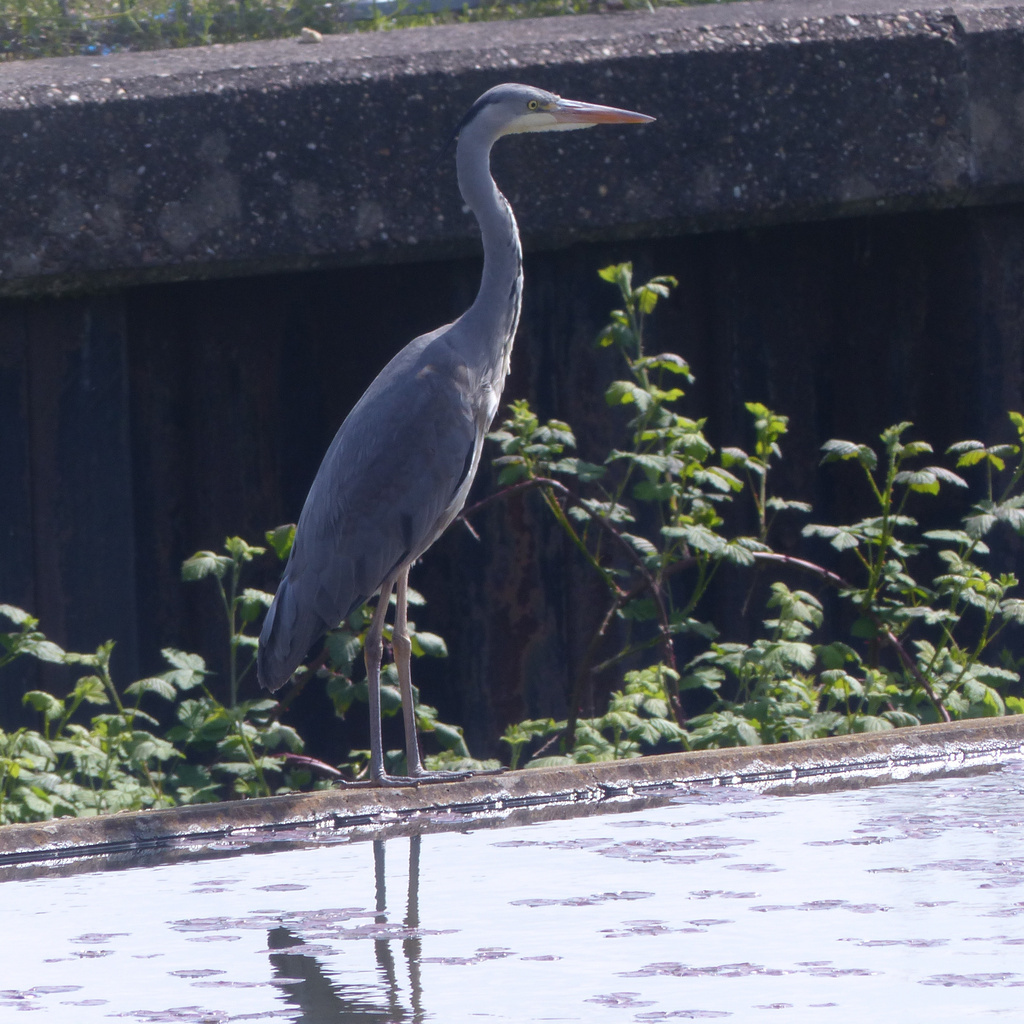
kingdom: Animalia
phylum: Chordata
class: Aves
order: Pelecaniformes
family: Ardeidae
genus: Ardea
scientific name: Ardea cinerea
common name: Grey heron
